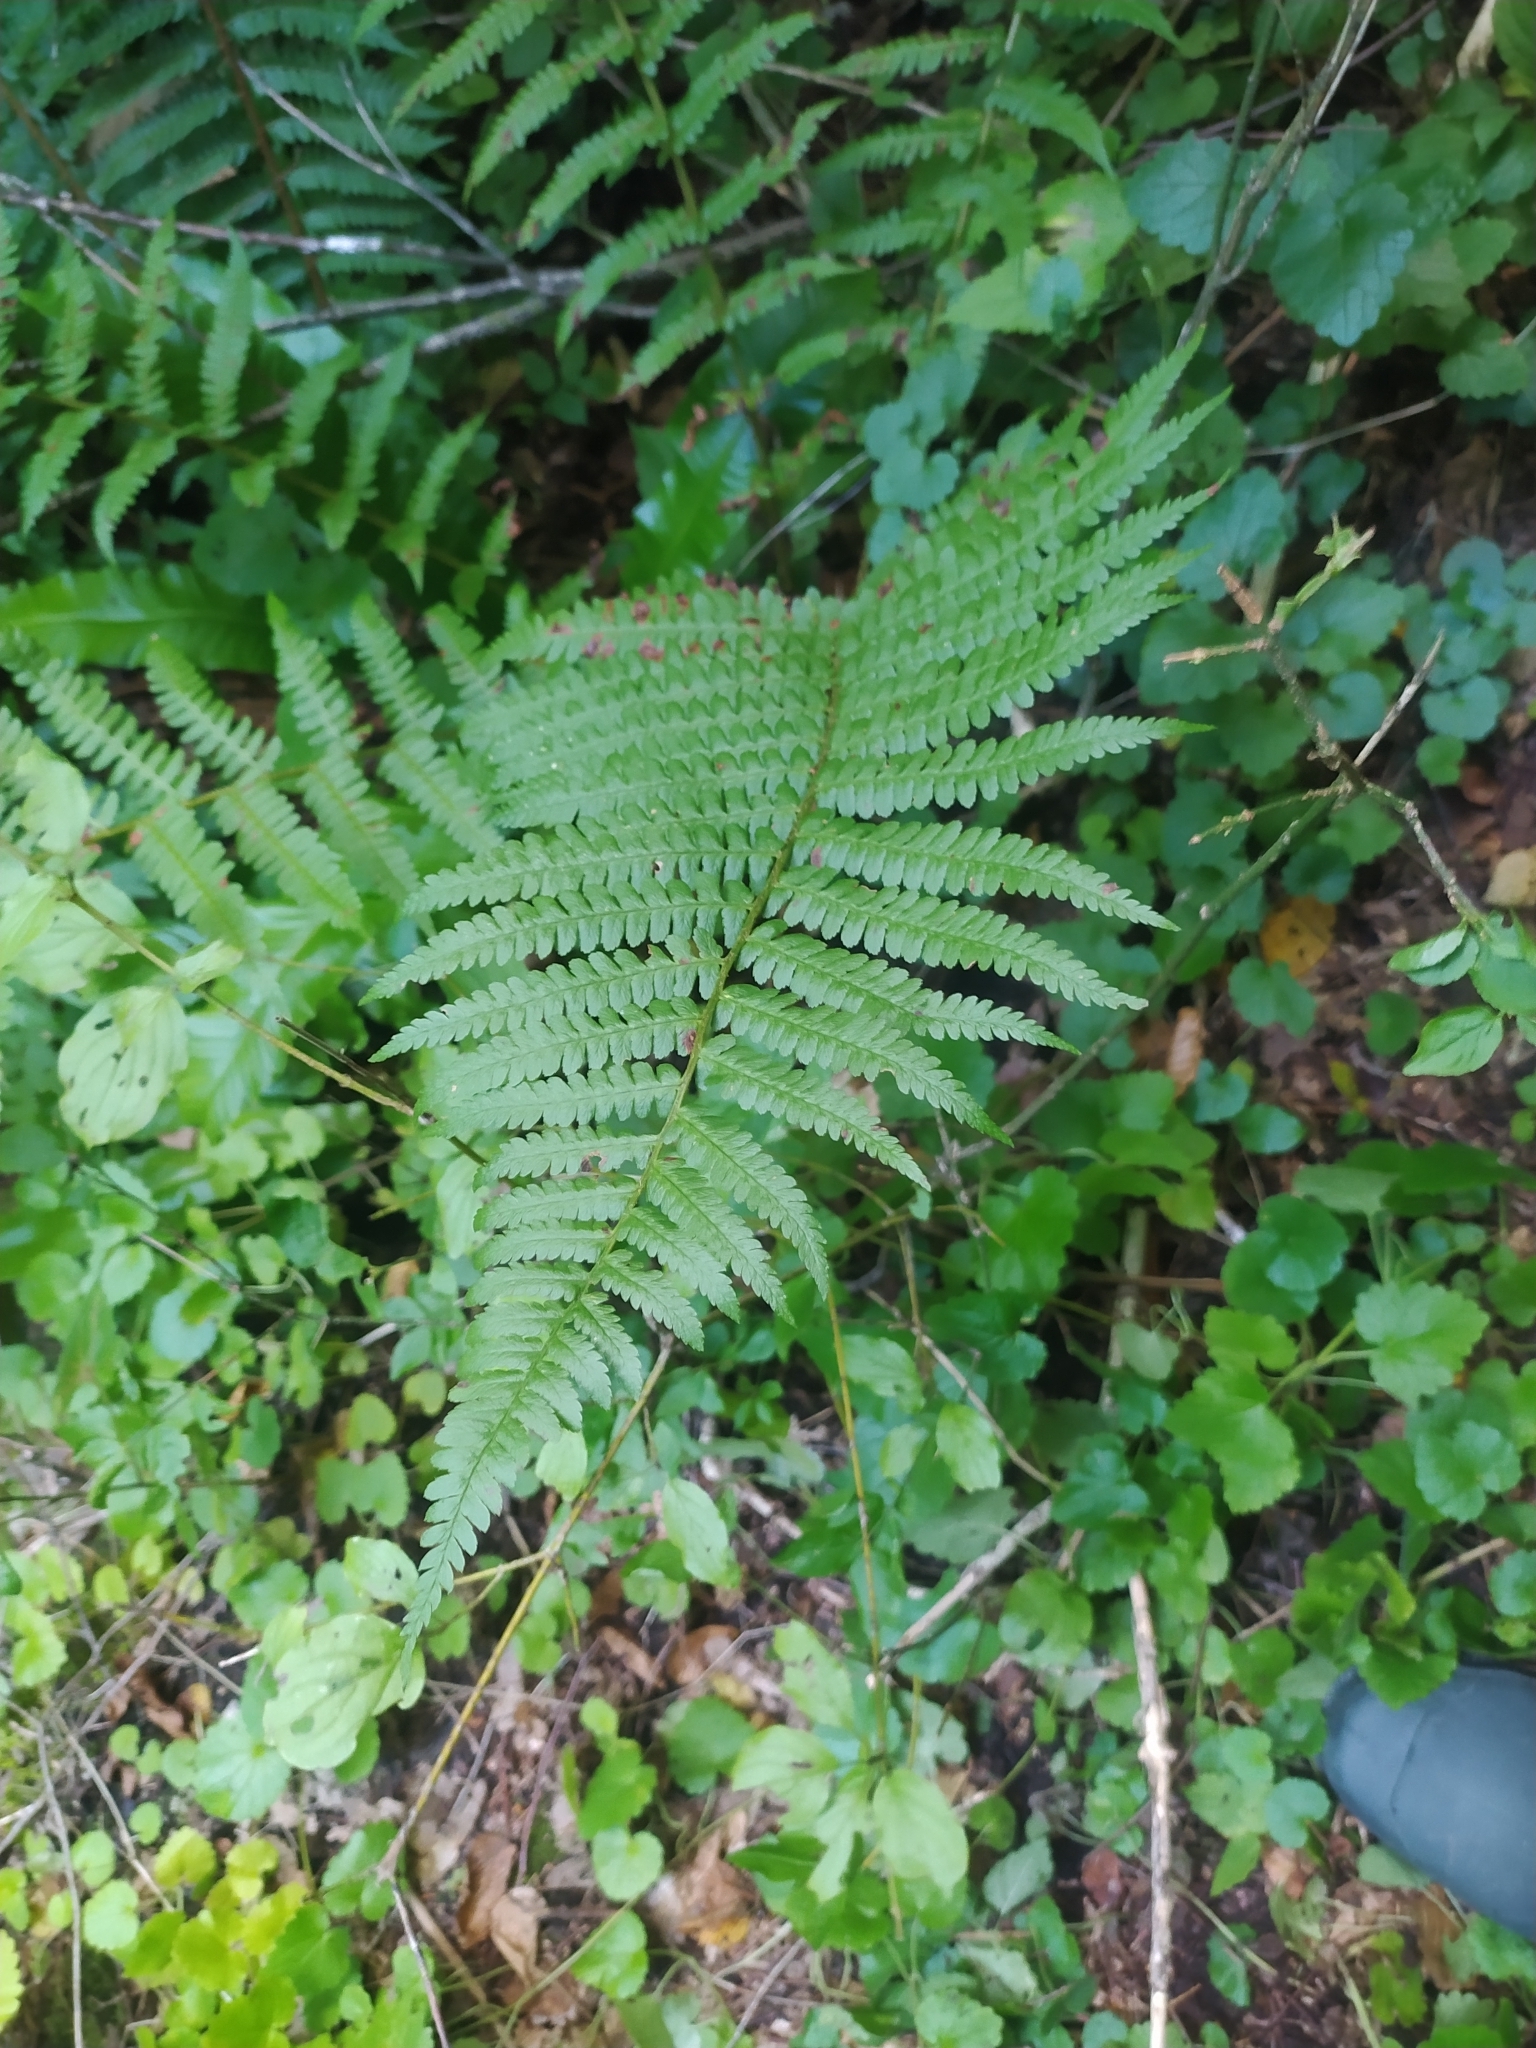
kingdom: Plantae
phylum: Tracheophyta
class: Polypodiopsida
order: Polypodiales
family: Dryopteridaceae
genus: Dryopteris
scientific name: Dryopteris filix-mas
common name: Male fern
